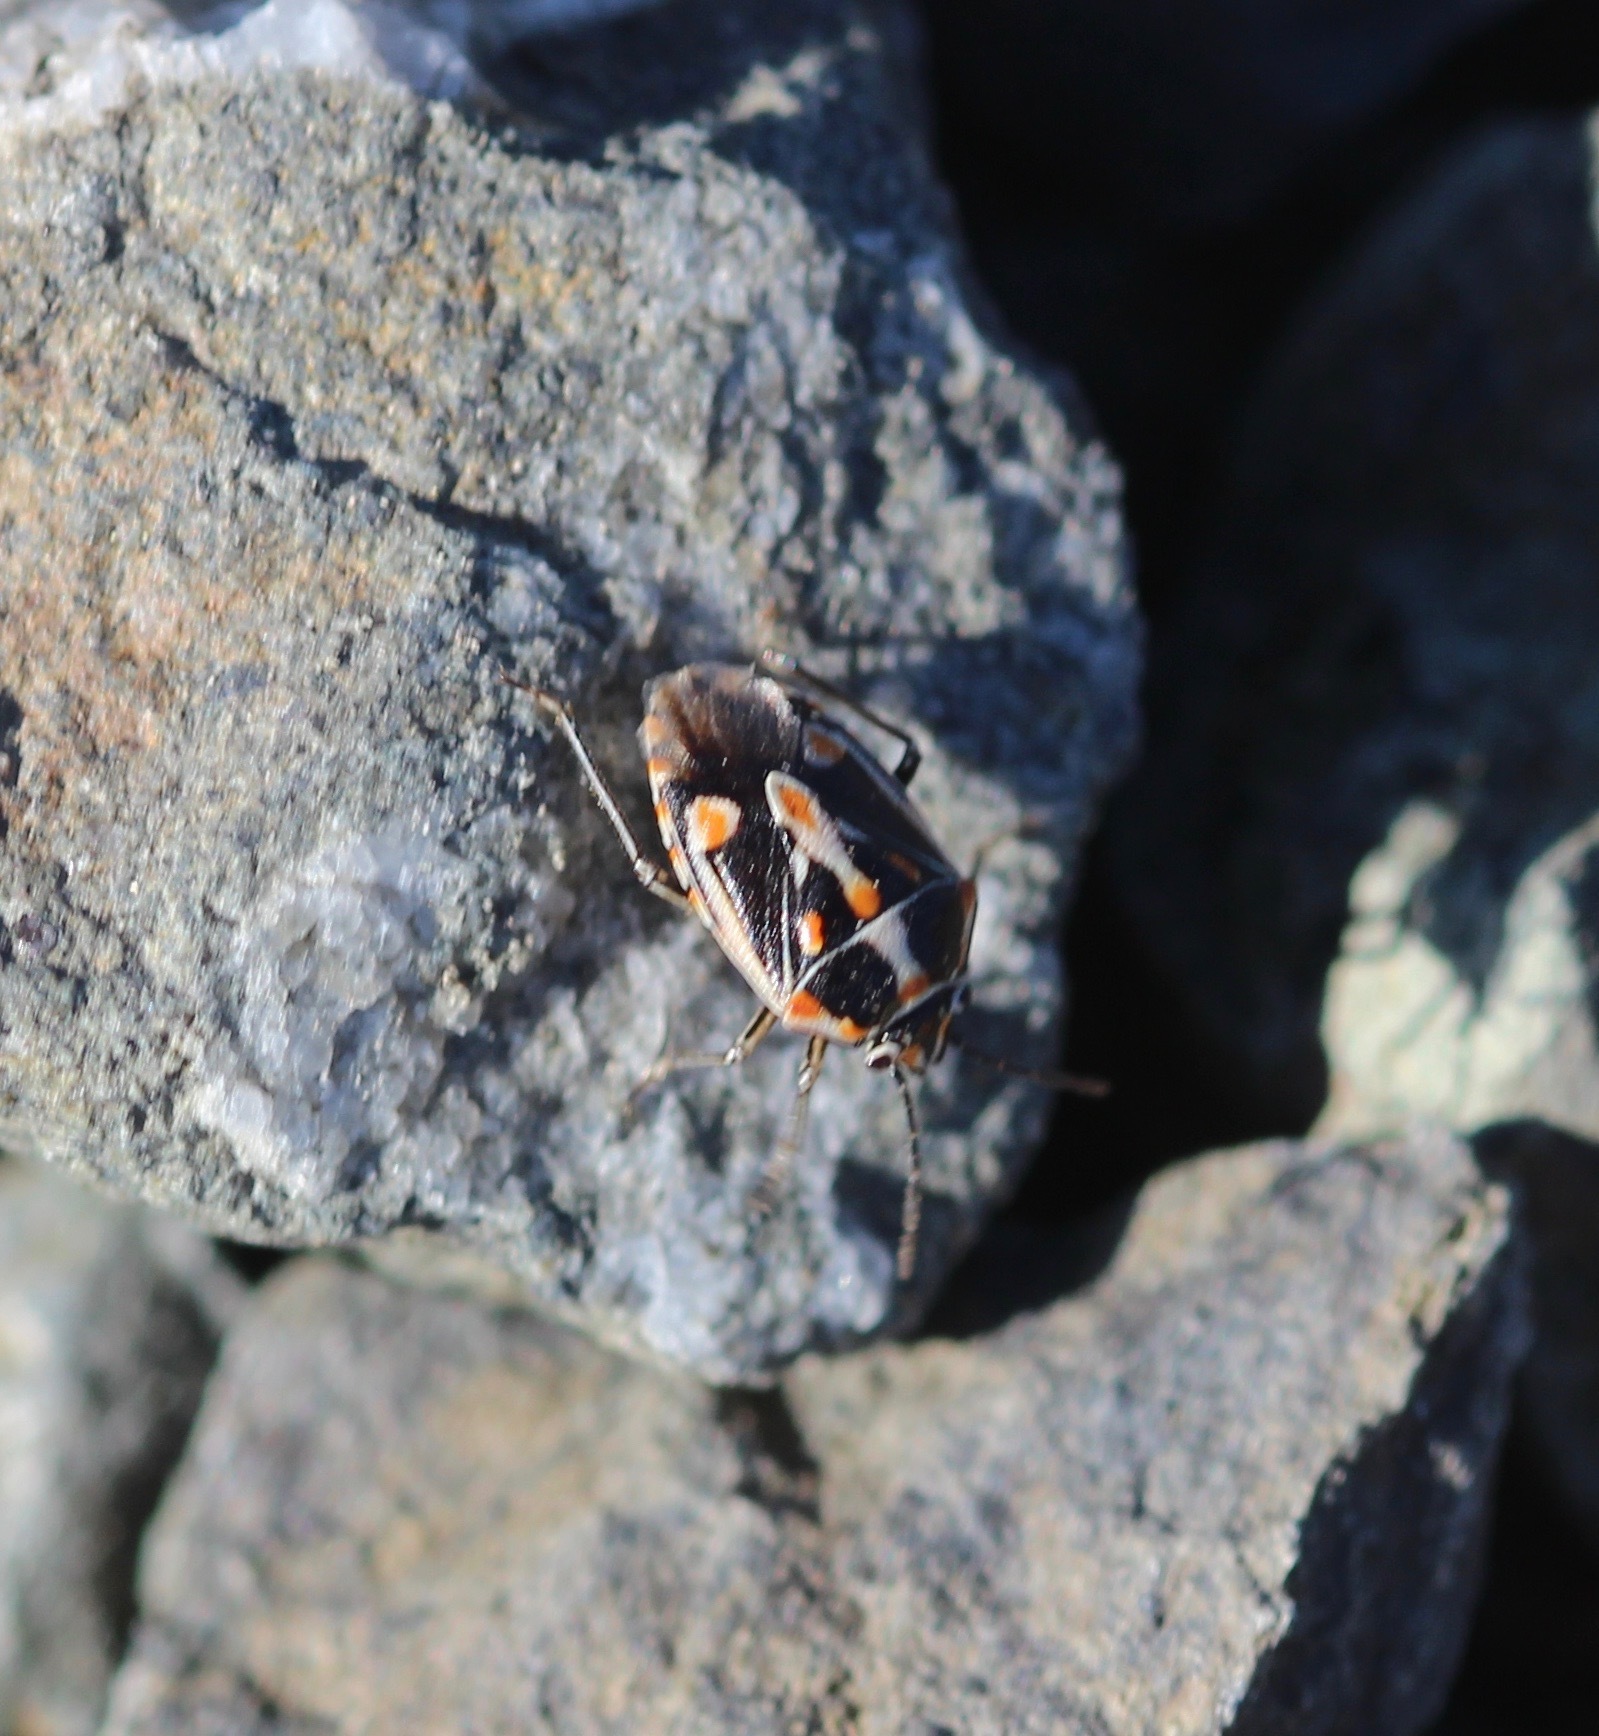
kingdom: Animalia
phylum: Arthropoda
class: Insecta
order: Hemiptera
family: Pentatomidae
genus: Bagrada
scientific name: Bagrada hilaris
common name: Bagrada bug
